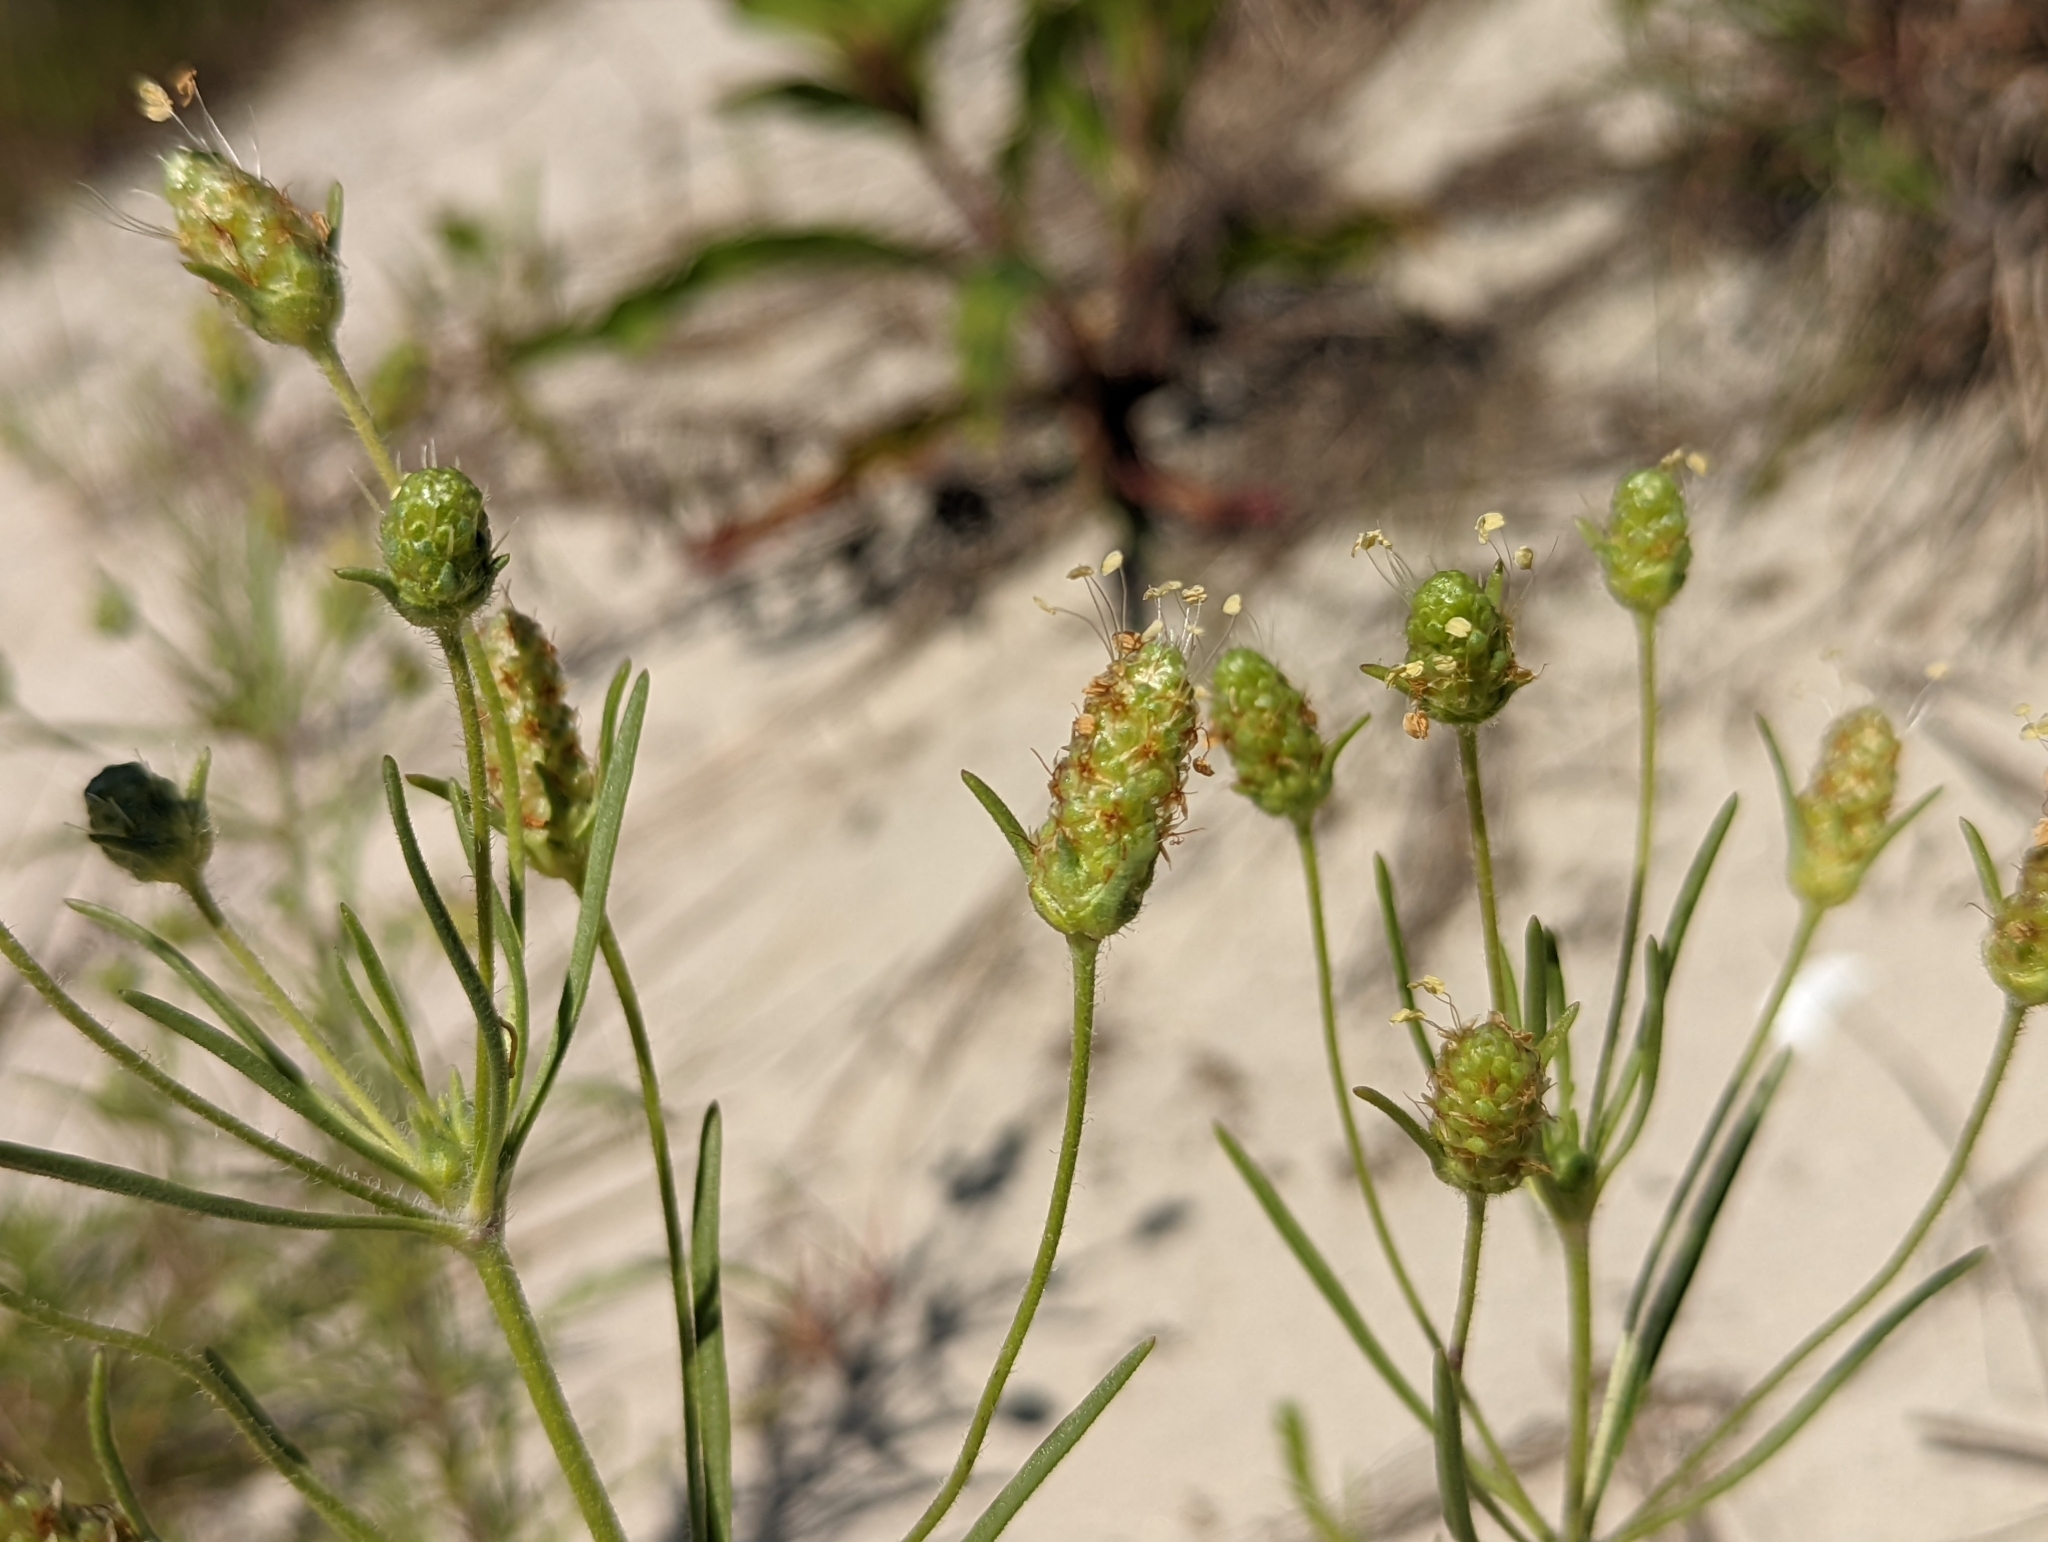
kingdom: Plantae
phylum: Tracheophyta
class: Magnoliopsida
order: Lamiales
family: Plantaginaceae
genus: Plantago
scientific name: Plantago arenaria
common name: Branched plantain
